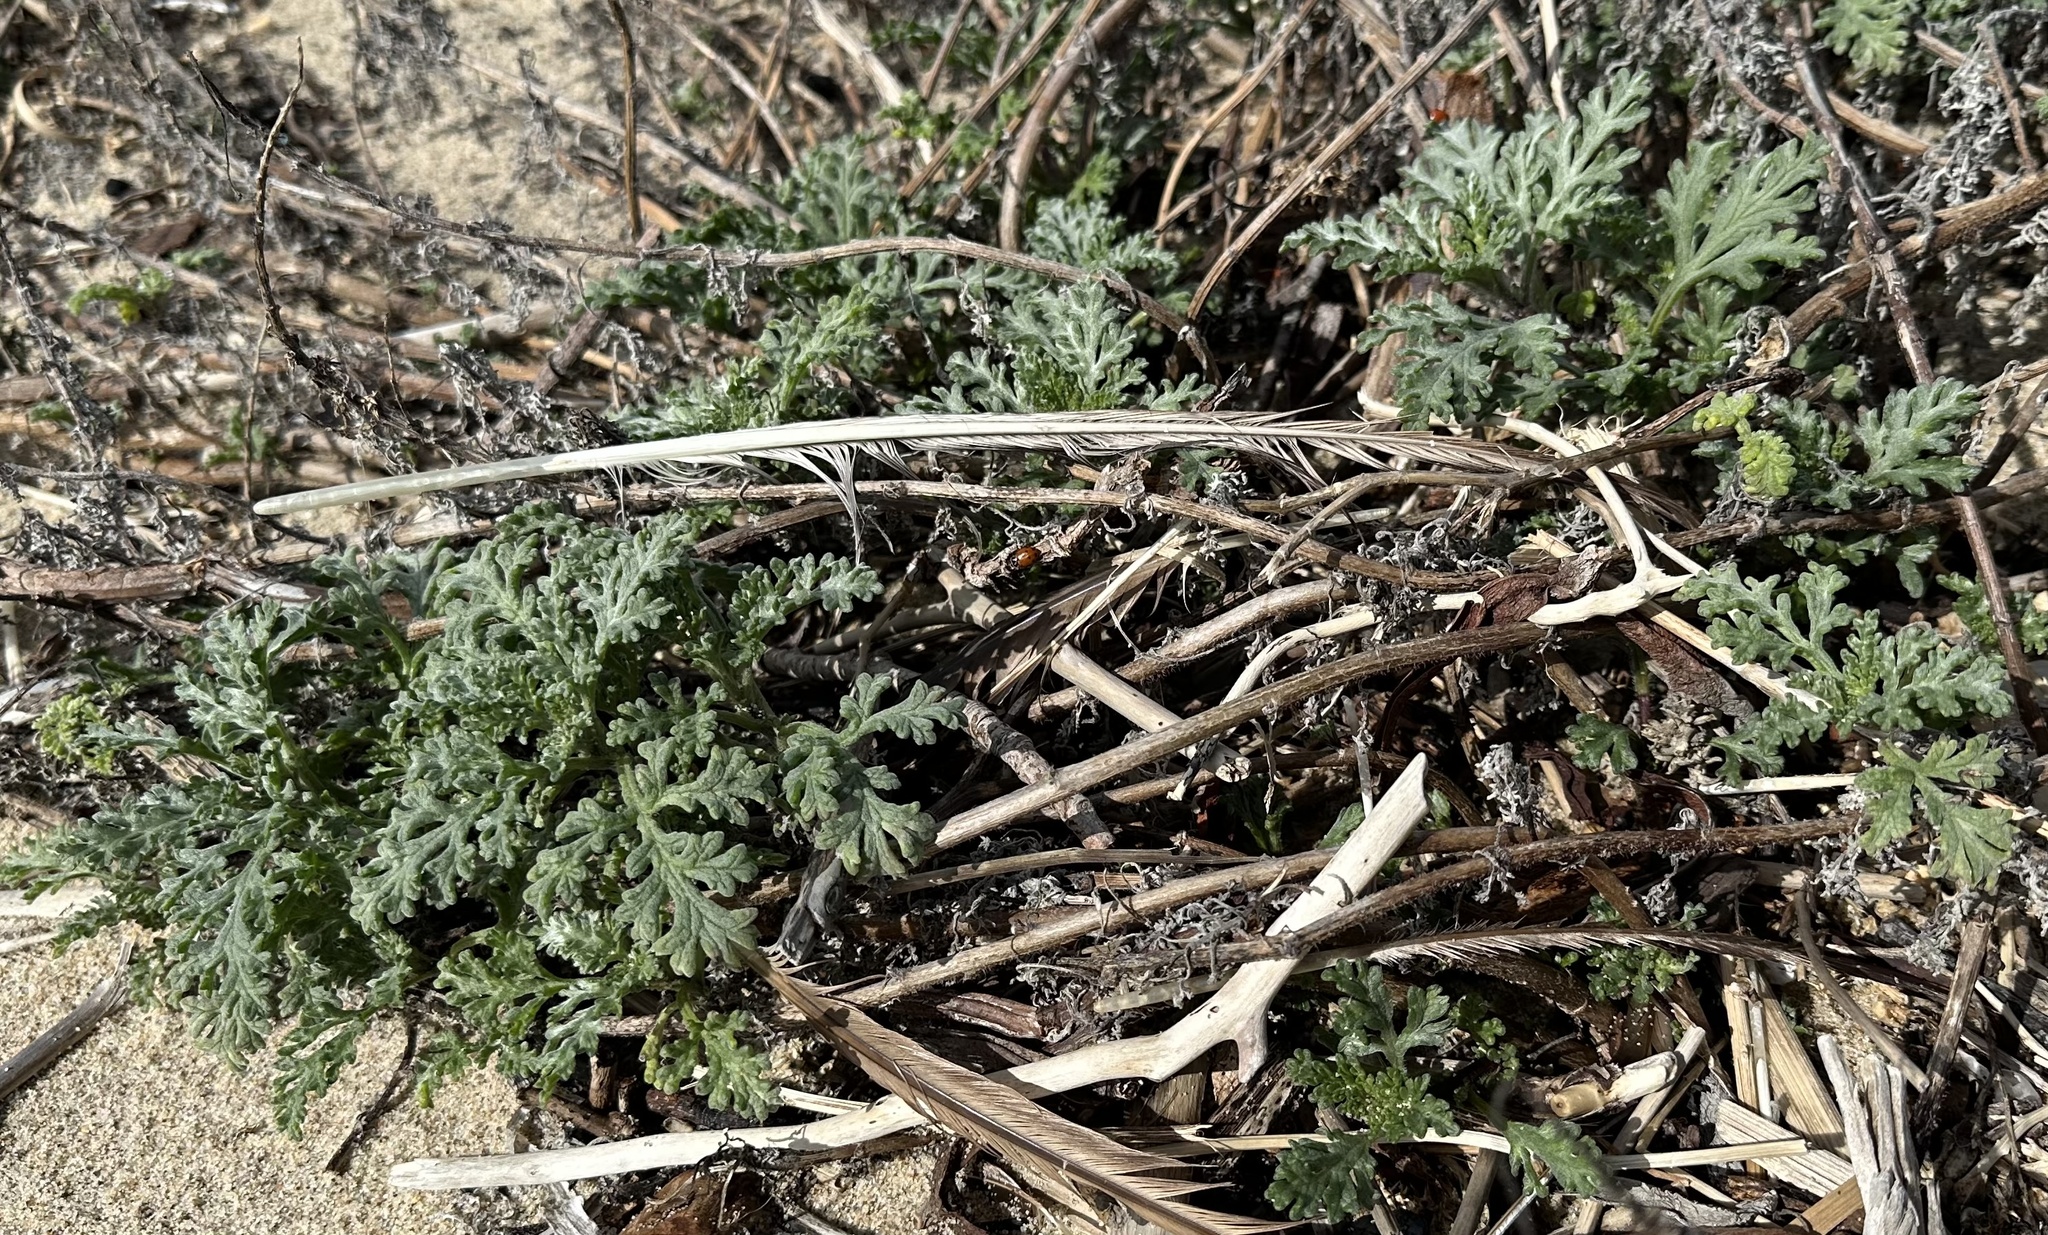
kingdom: Plantae
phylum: Tracheophyta
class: Magnoliopsida
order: Asterales
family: Asteraceae
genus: Ambrosia
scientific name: Ambrosia chamissonis
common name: Beachbur
